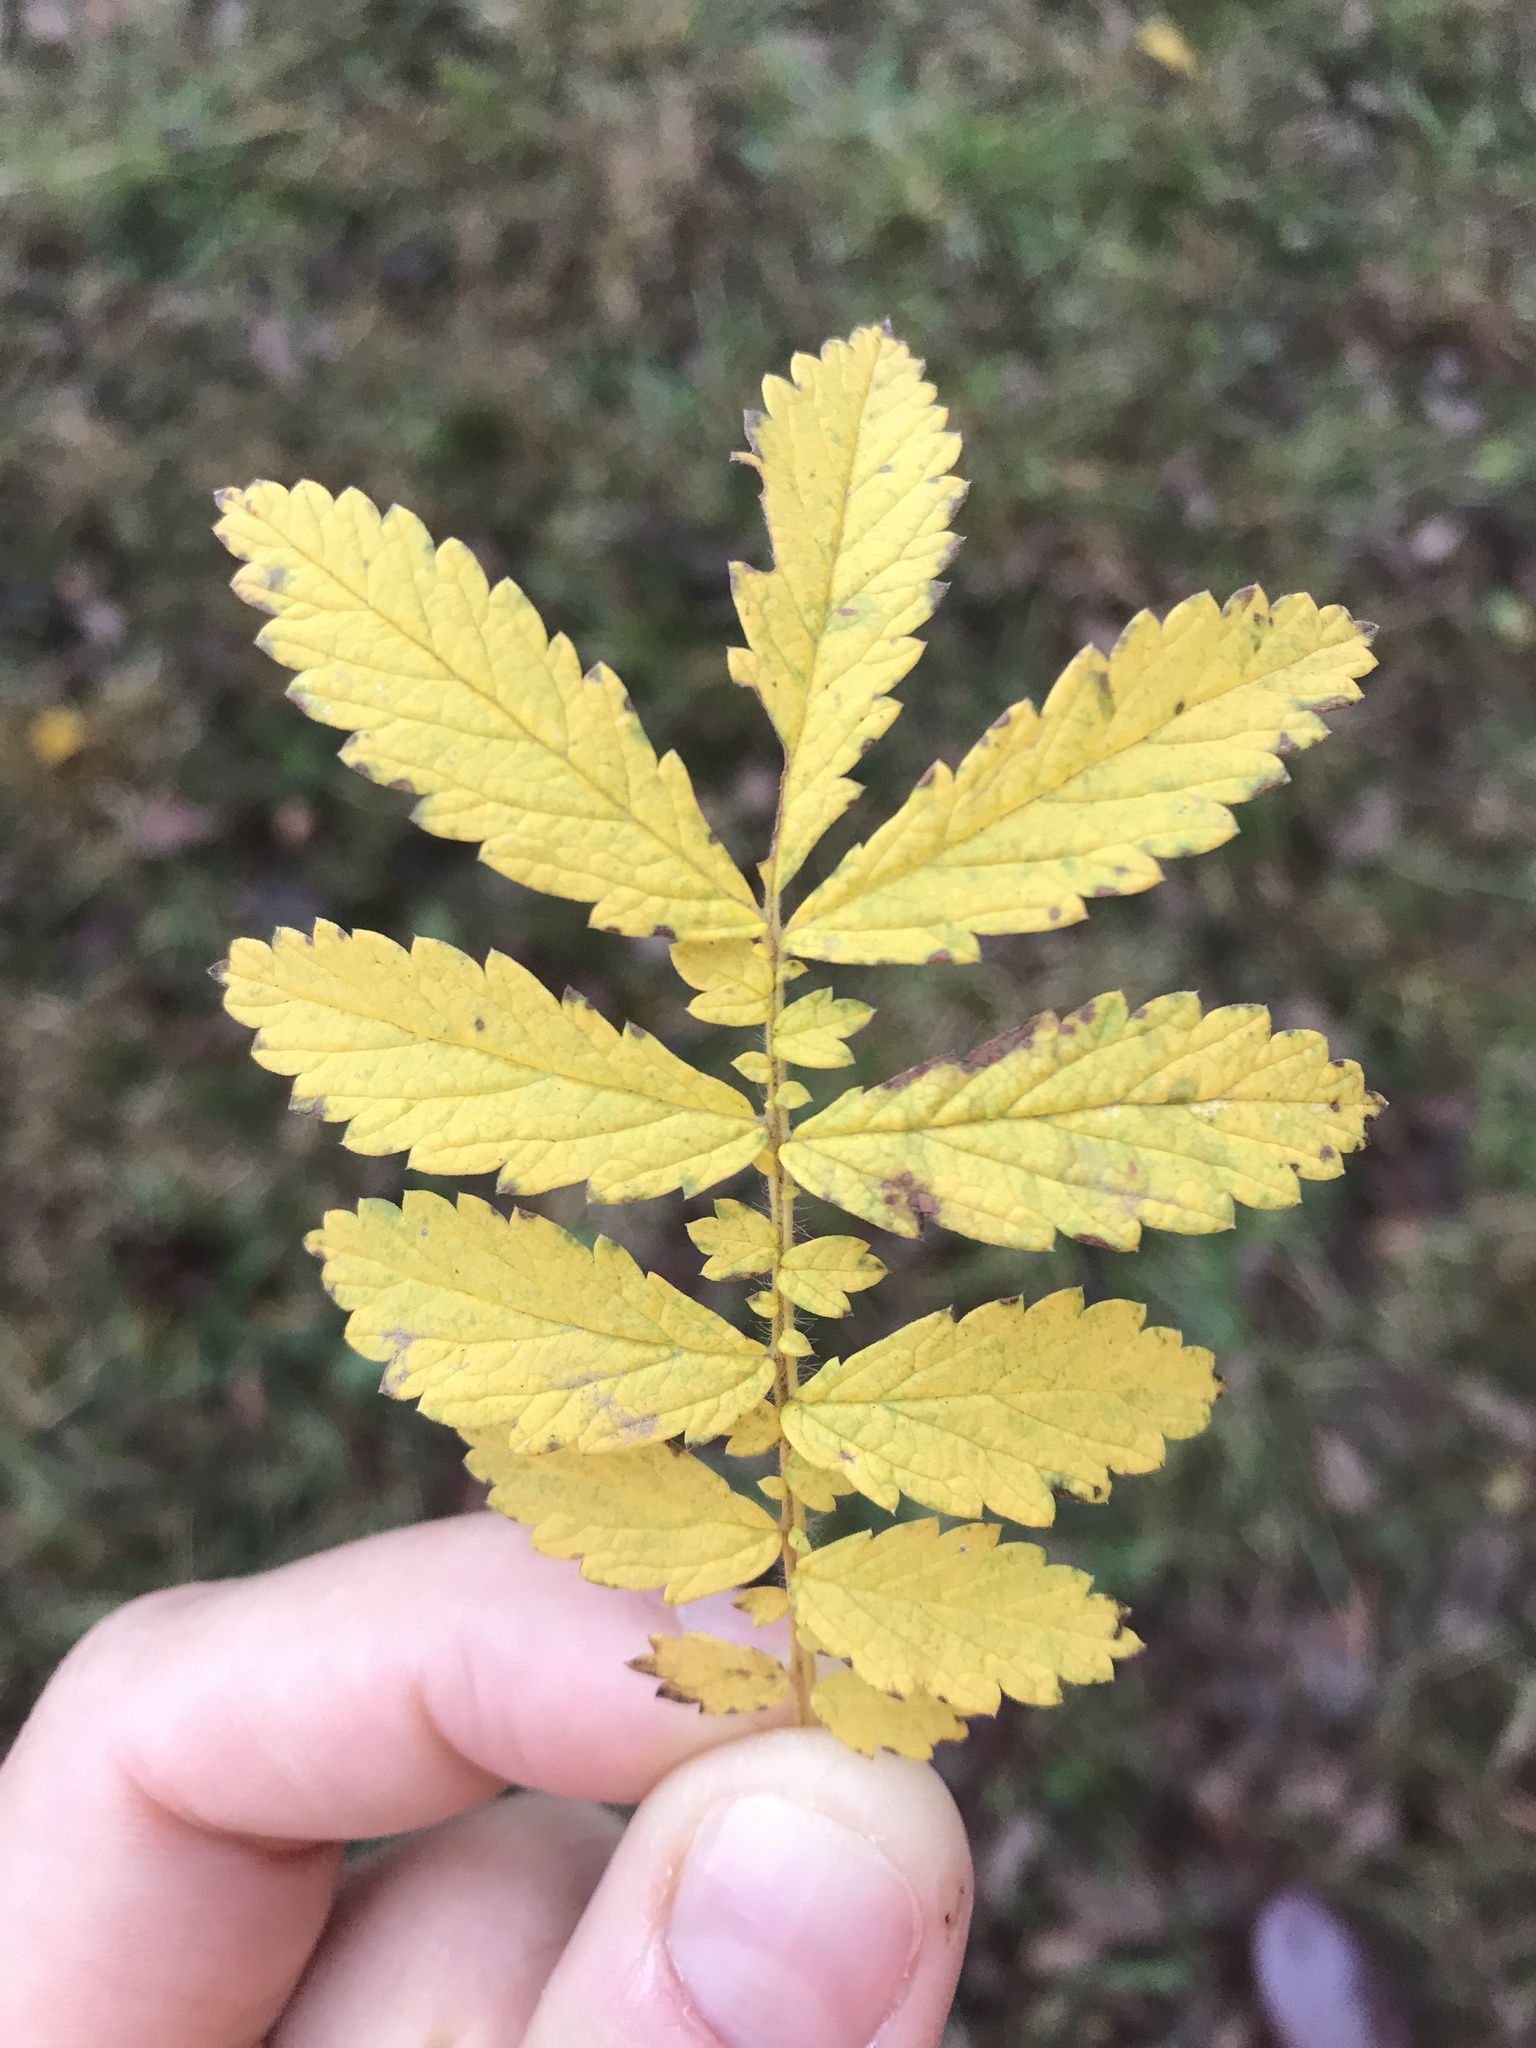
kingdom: Plantae
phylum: Tracheophyta
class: Magnoliopsida
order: Rosales
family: Rosaceae
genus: Agrimonia
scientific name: Agrimonia parviflora
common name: Harvest-lice
